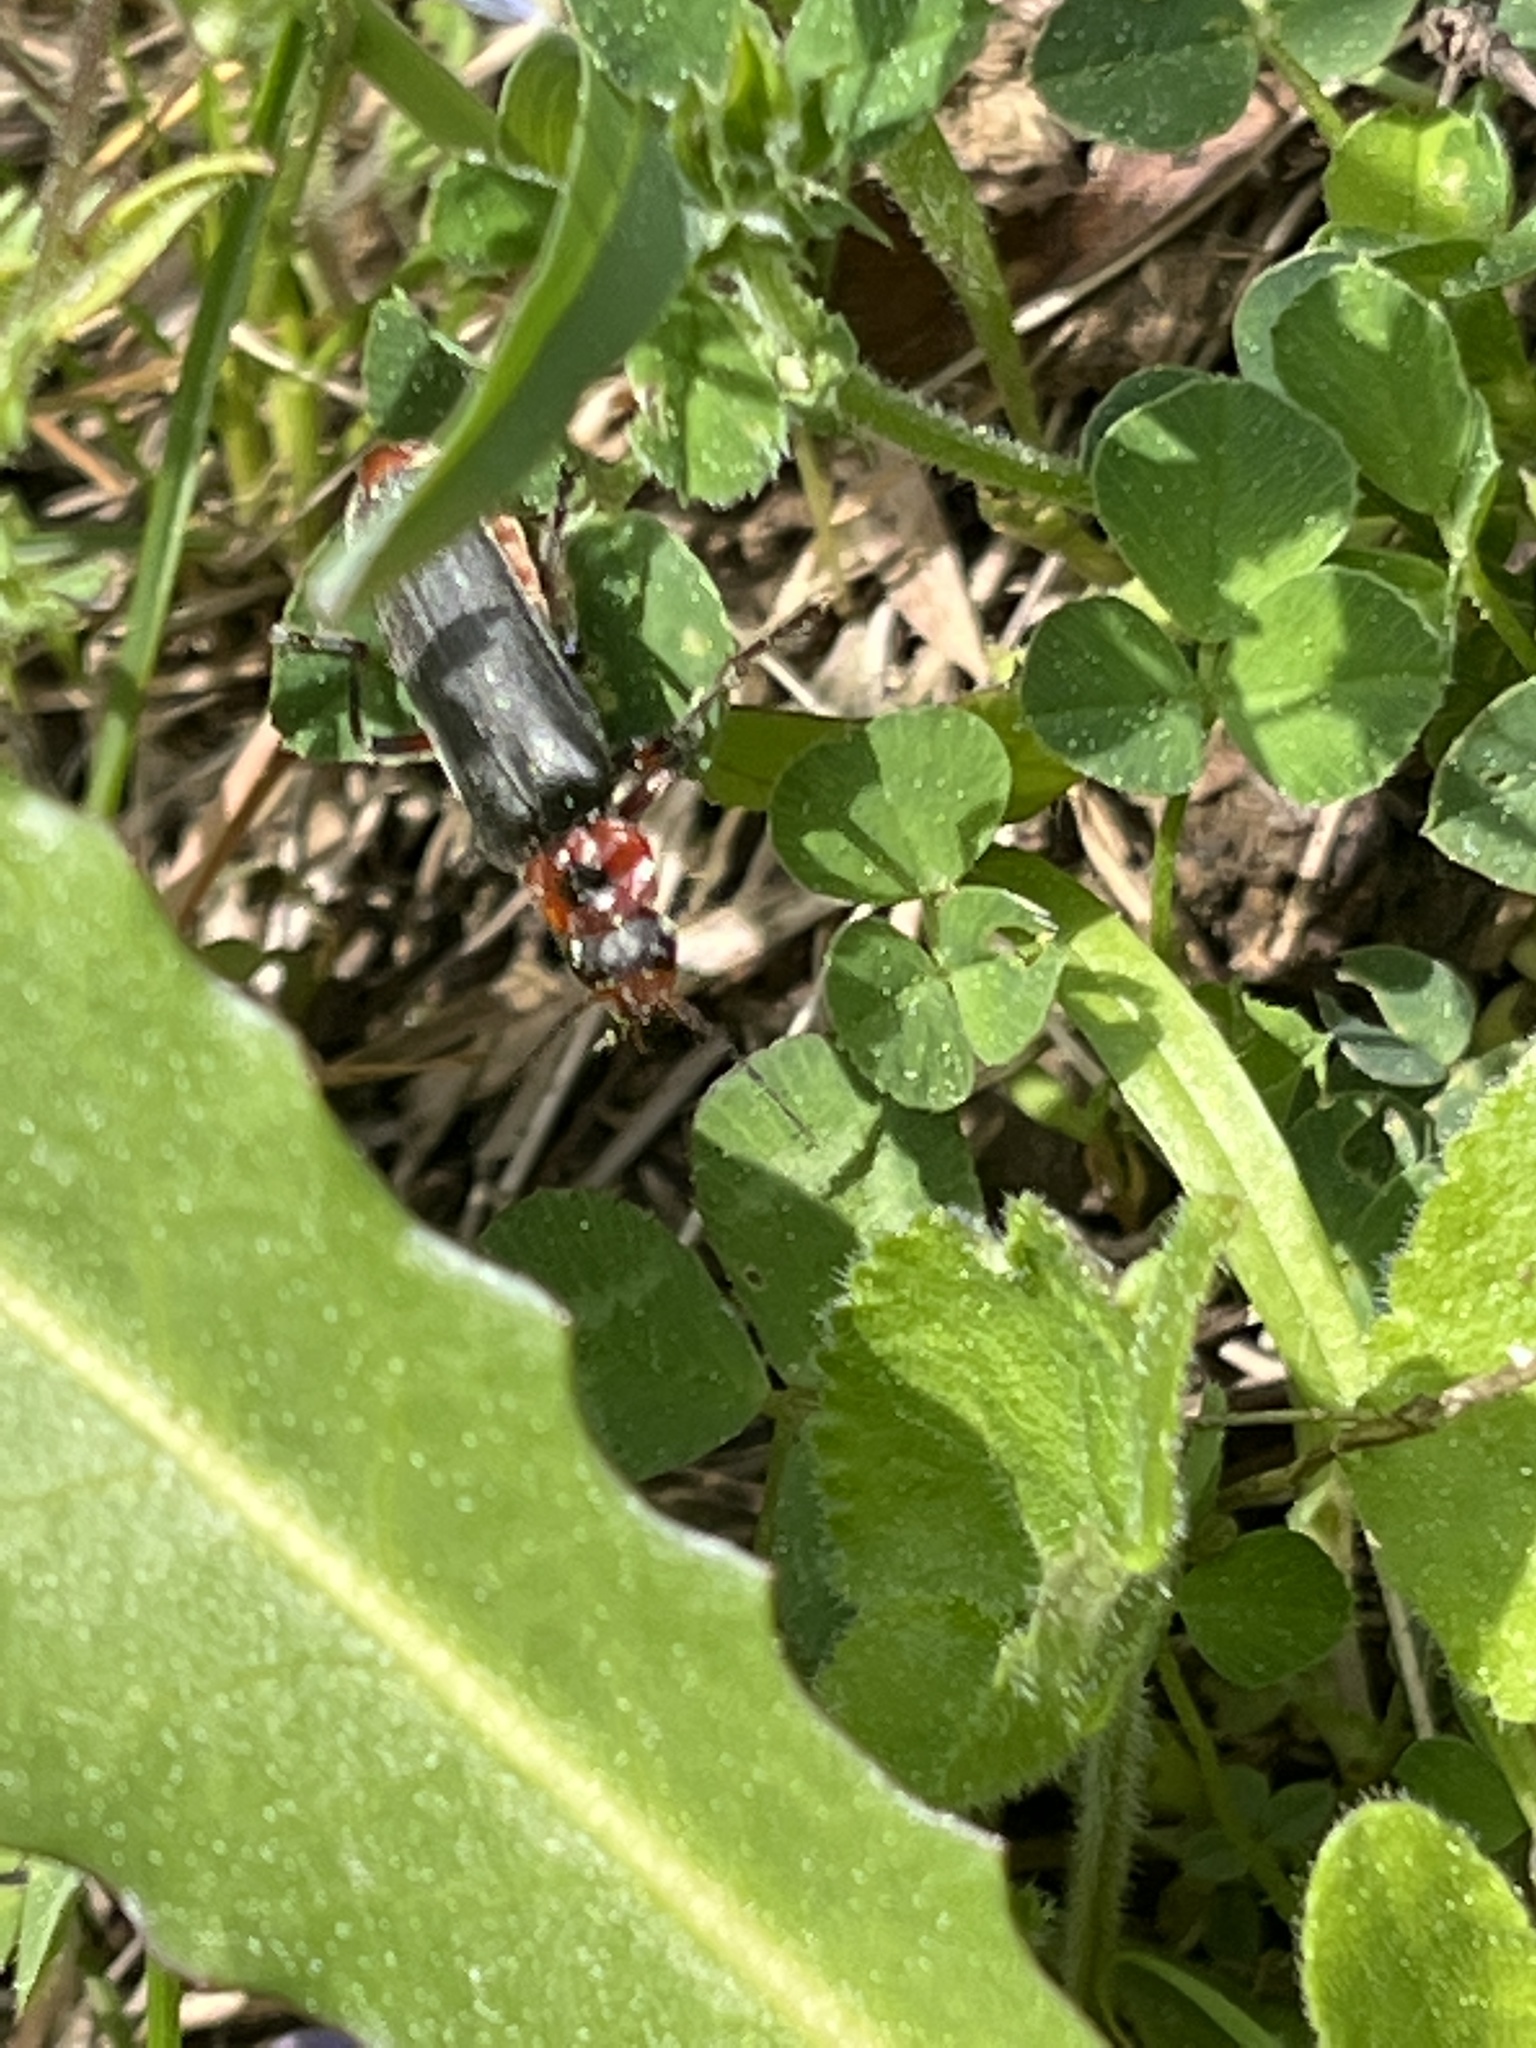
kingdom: Animalia
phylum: Arthropoda
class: Insecta
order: Coleoptera
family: Cantharidae
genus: Cantharis
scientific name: Cantharis rustica
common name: Soldier beetle
